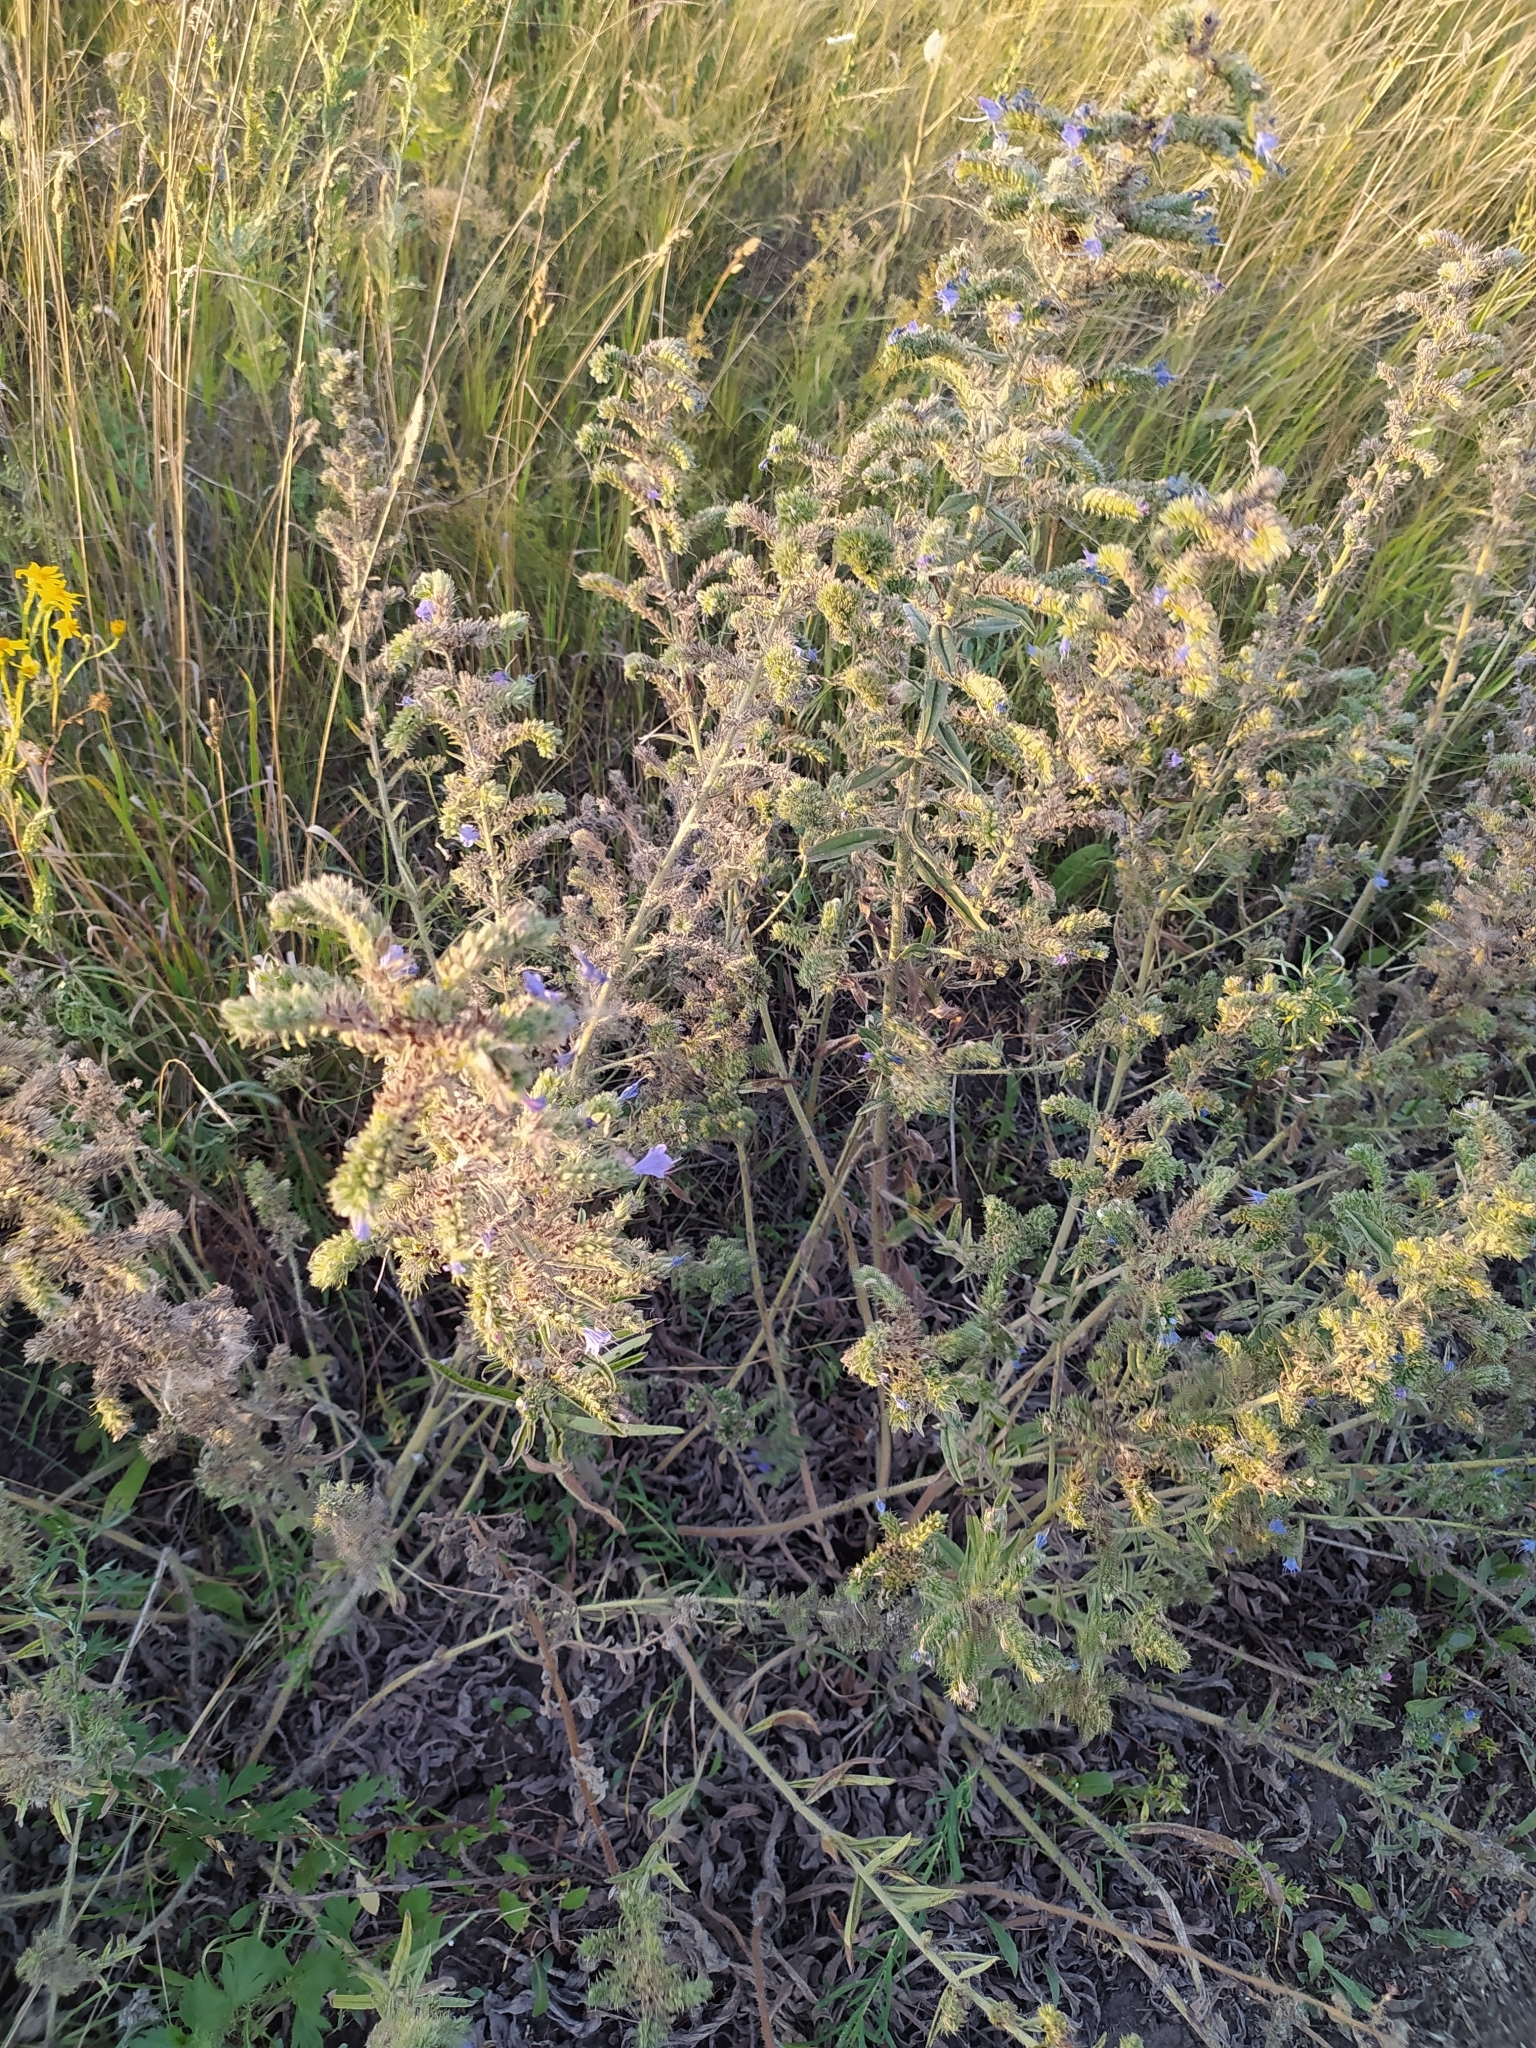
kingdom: Plantae
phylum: Tracheophyta
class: Magnoliopsida
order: Boraginales
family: Boraginaceae
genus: Echium
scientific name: Echium vulgare
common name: Common viper's bugloss
